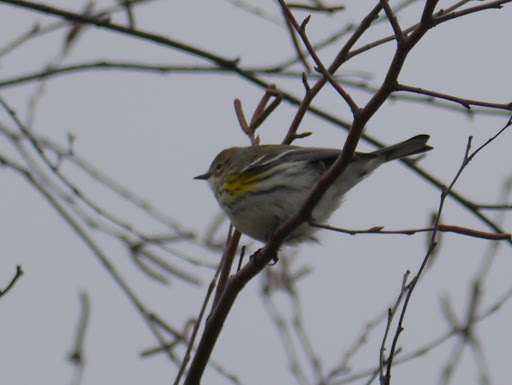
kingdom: Animalia
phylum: Chordata
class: Aves
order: Passeriformes
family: Parulidae
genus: Setophaga
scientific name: Setophaga coronata
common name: Myrtle warbler
